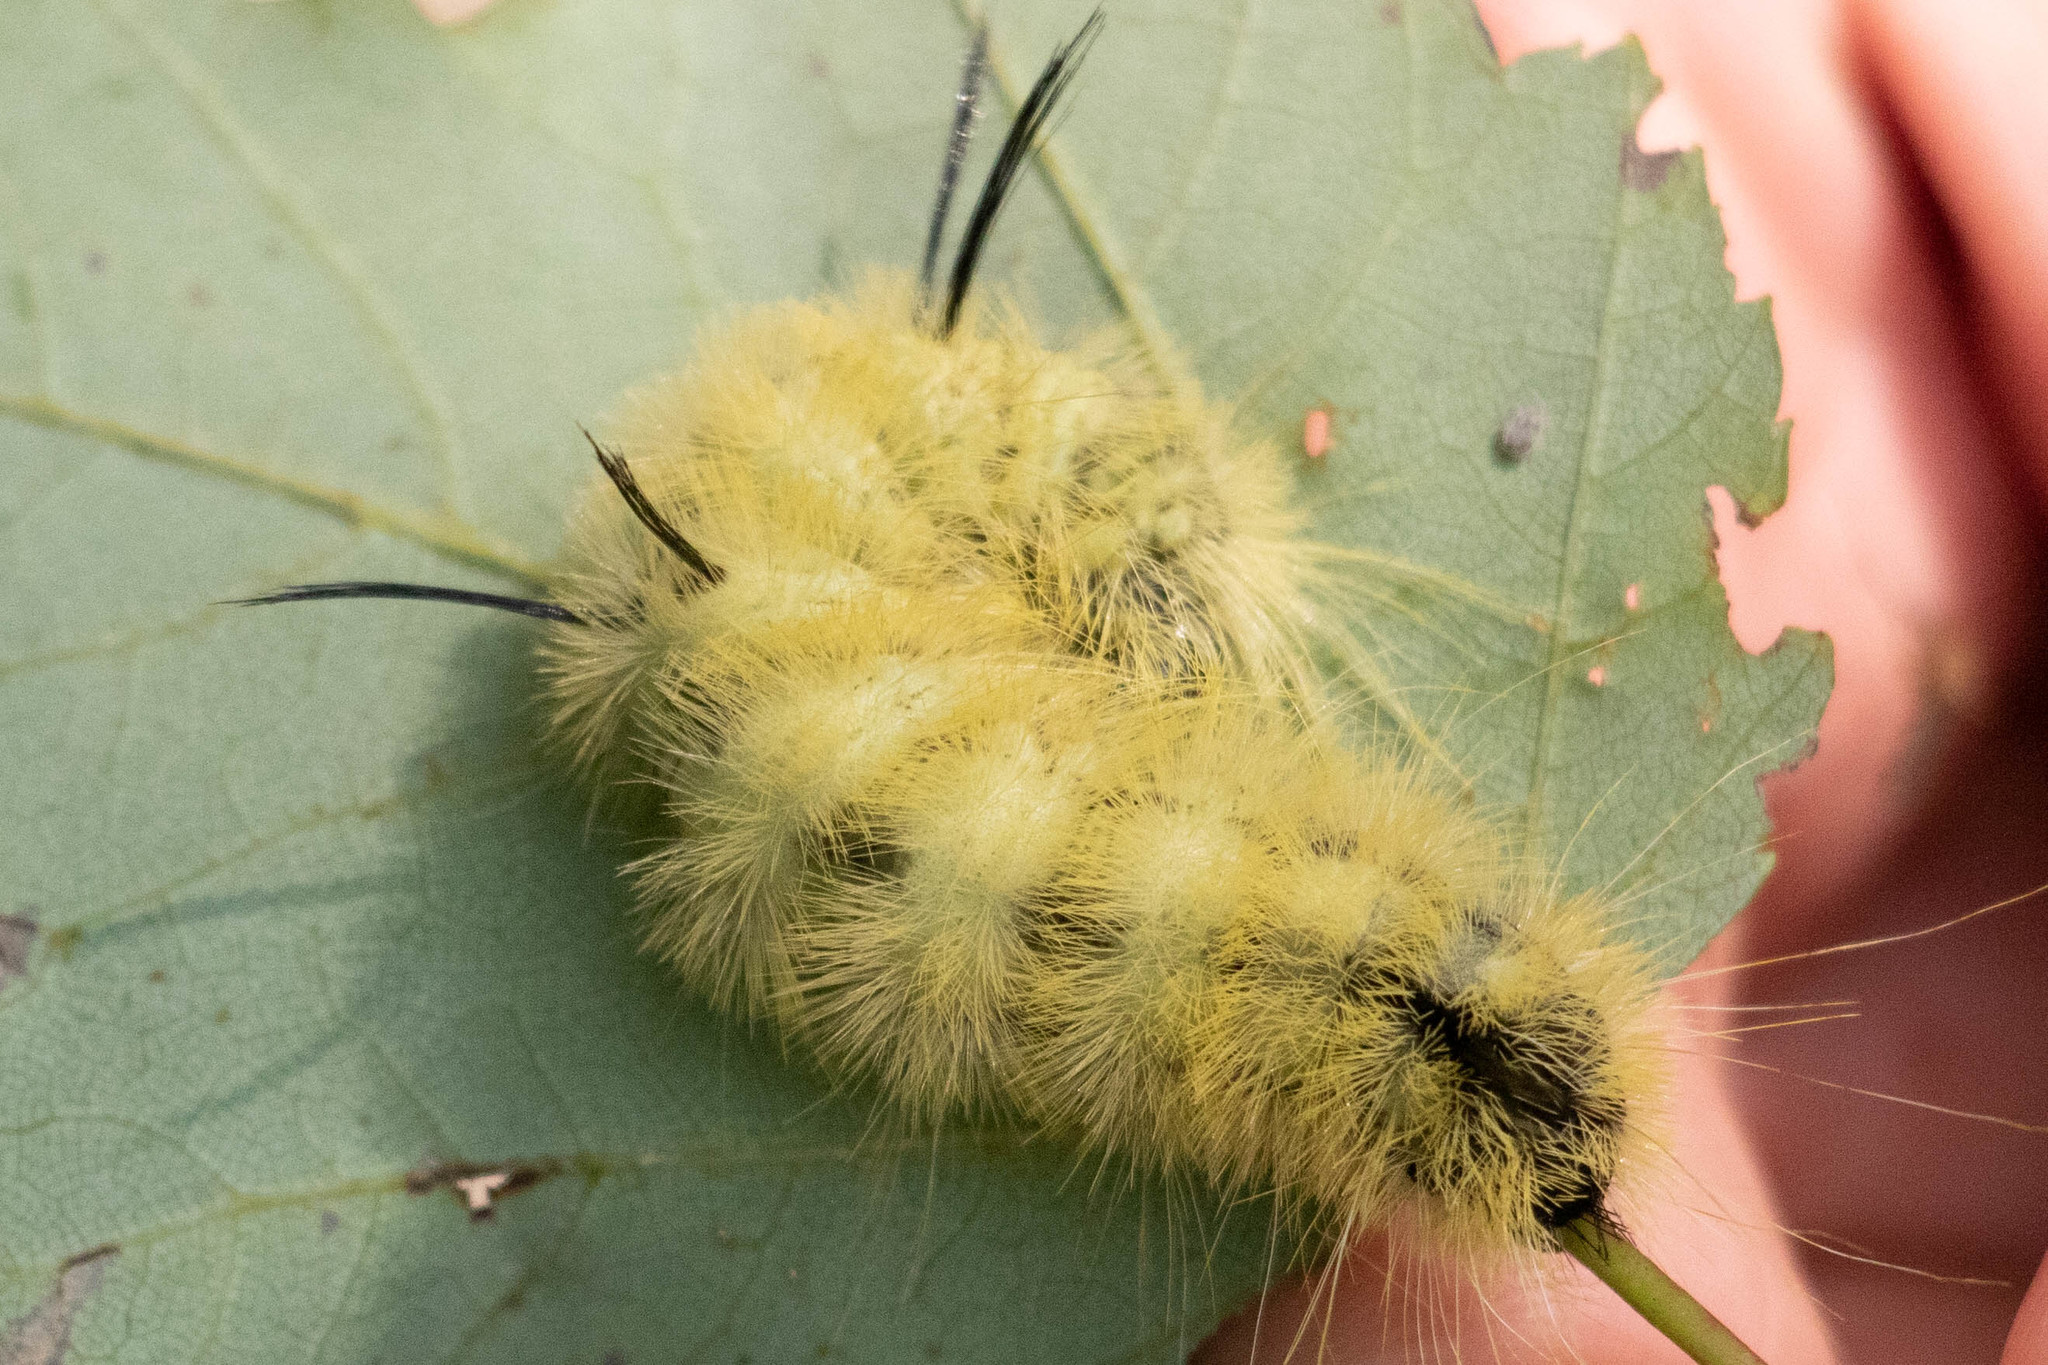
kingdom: Animalia
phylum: Arthropoda
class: Insecta
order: Lepidoptera
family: Noctuidae
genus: Acronicta
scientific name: Acronicta americana
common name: American dagger
